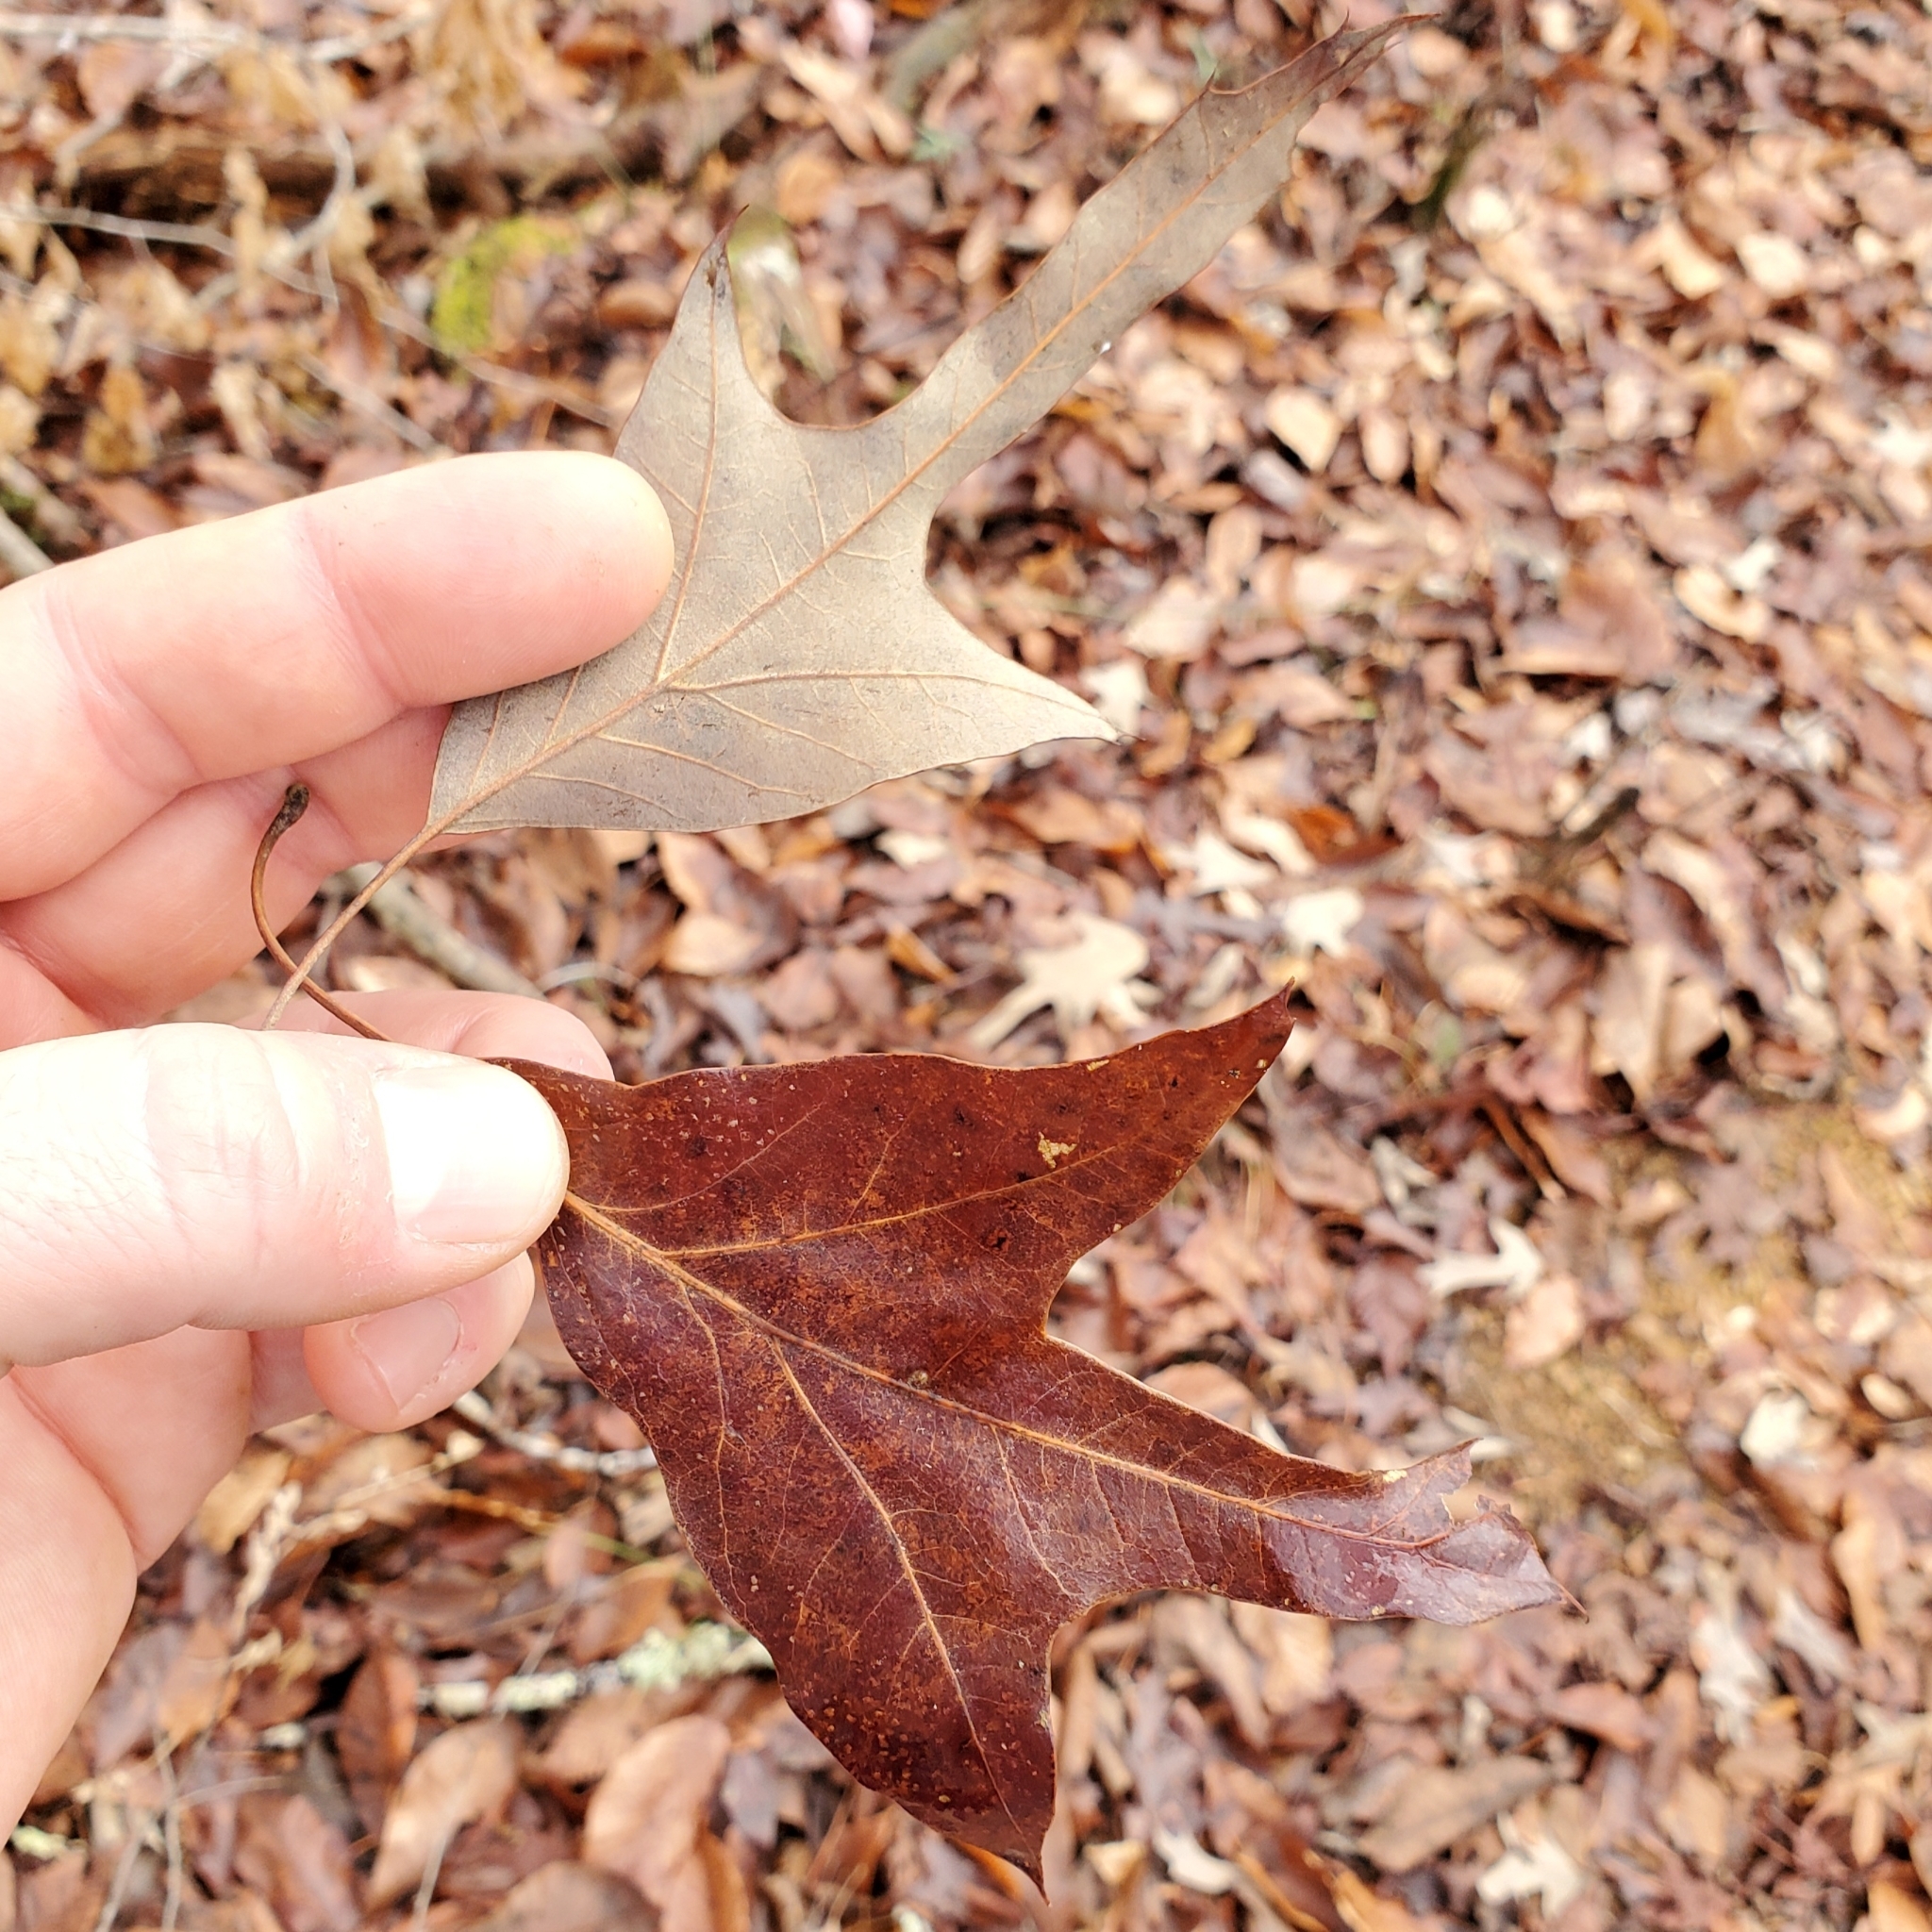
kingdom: Plantae
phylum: Tracheophyta
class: Magnoliopsida
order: Fagales
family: Fagaceae
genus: Quercus
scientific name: Quercus falcata
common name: Southern red oak
